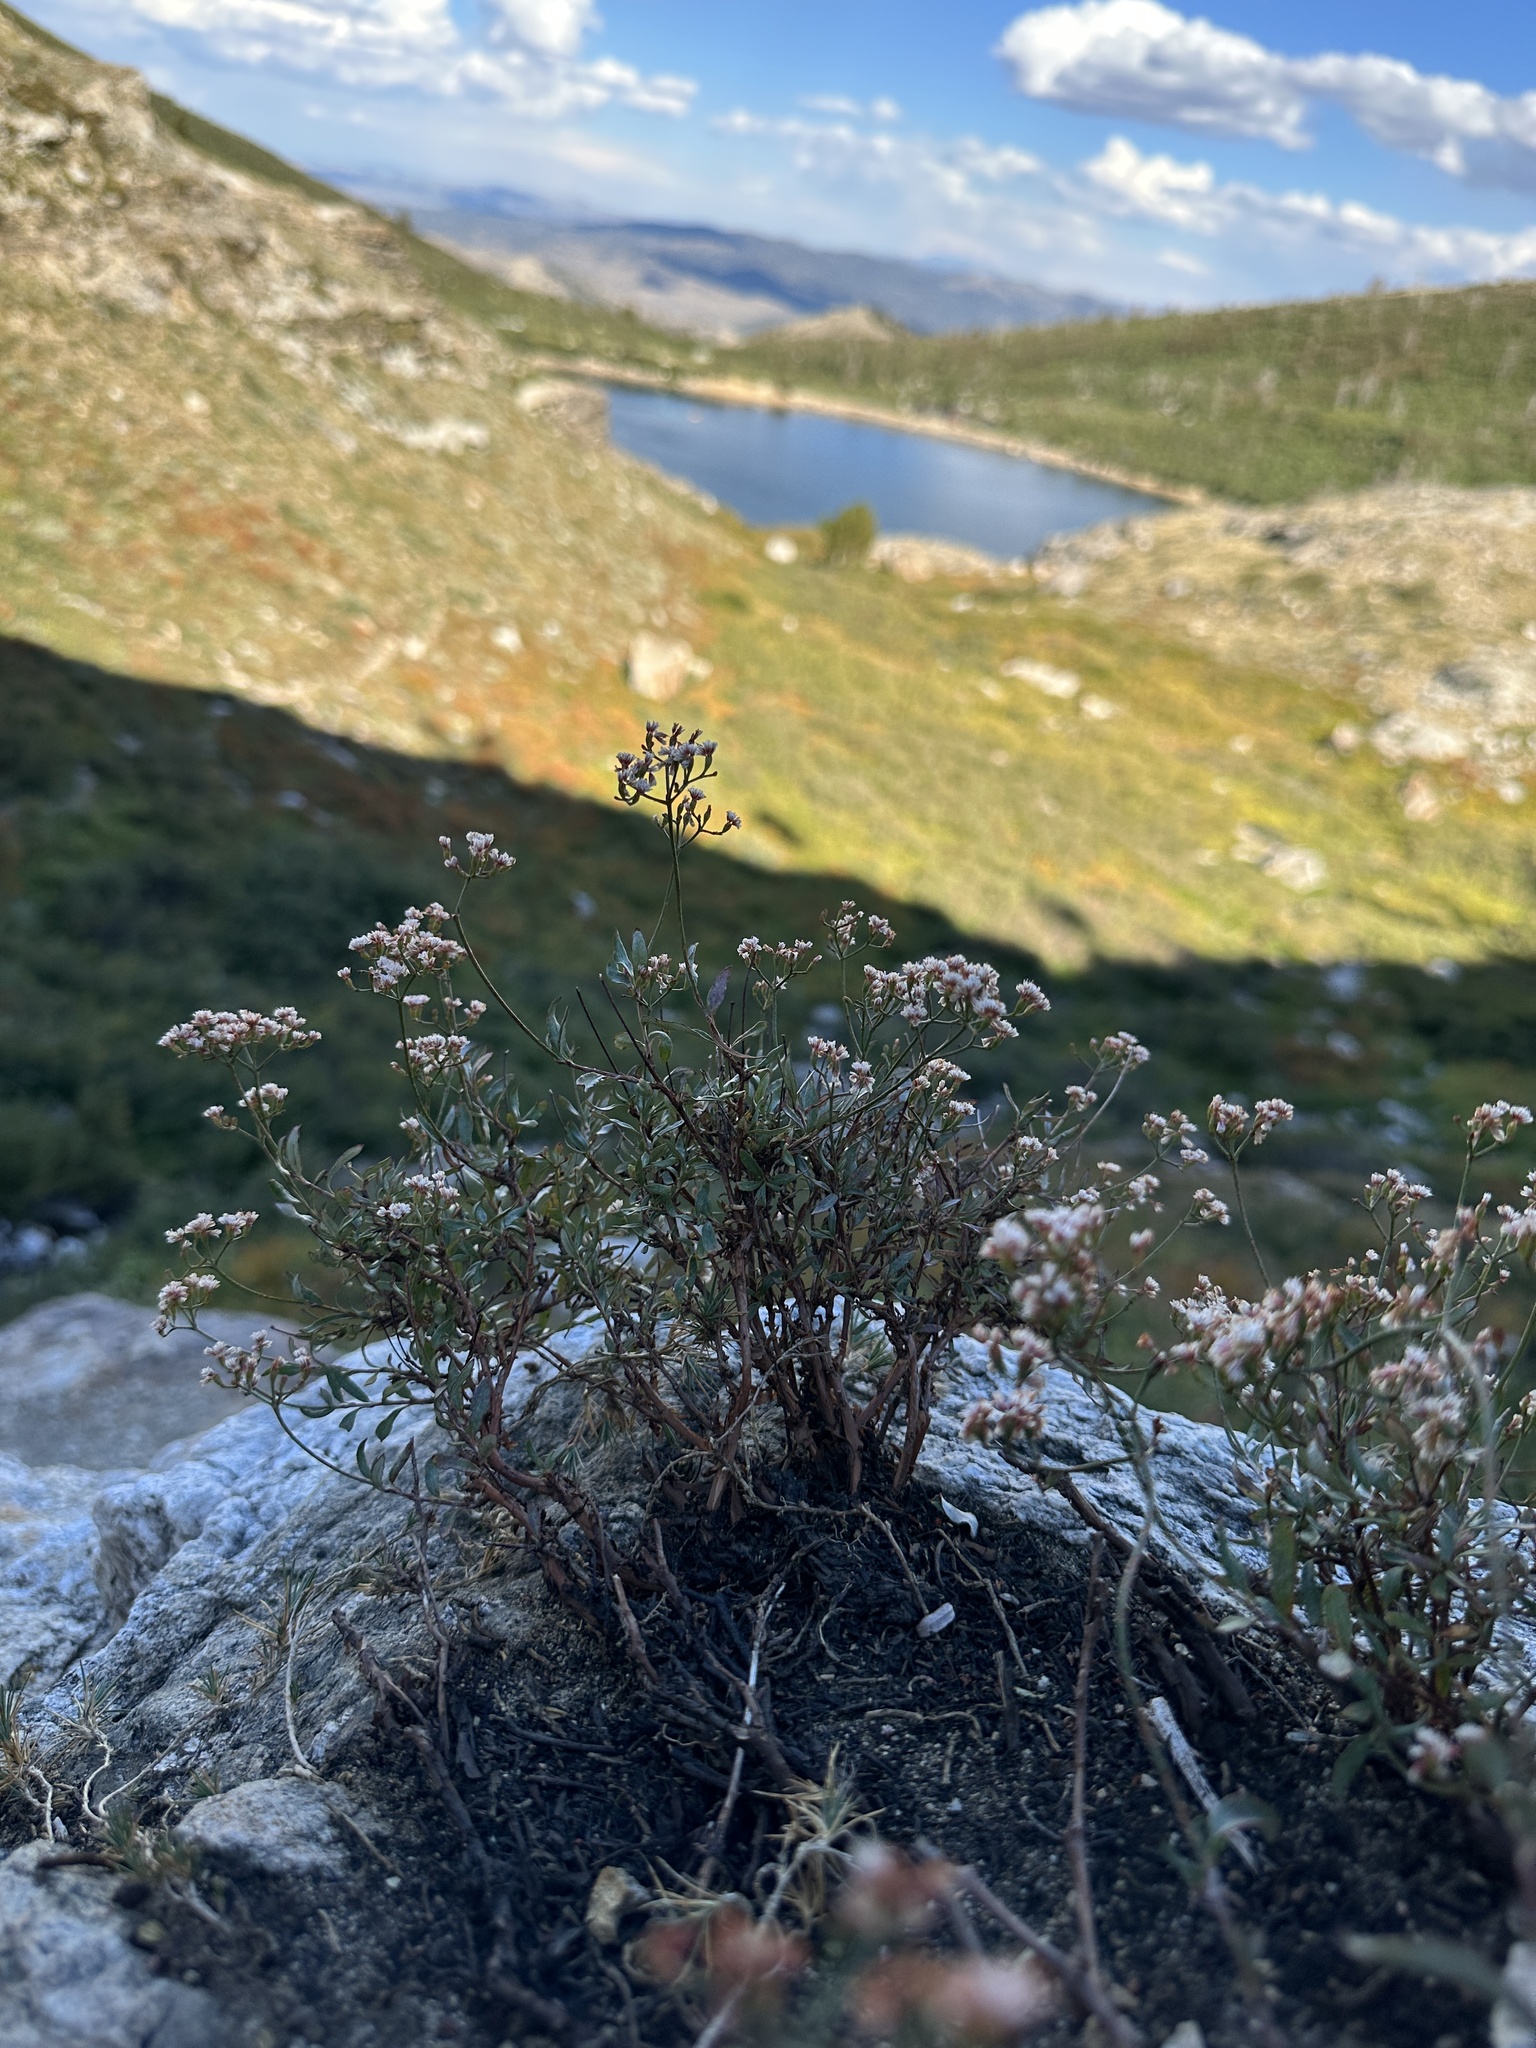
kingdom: Plantae
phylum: Tracheophyta
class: Magnoliopsida
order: Caryophyllales
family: Polygonaceae
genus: Eriogonum
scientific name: Eriogonum microtheca
